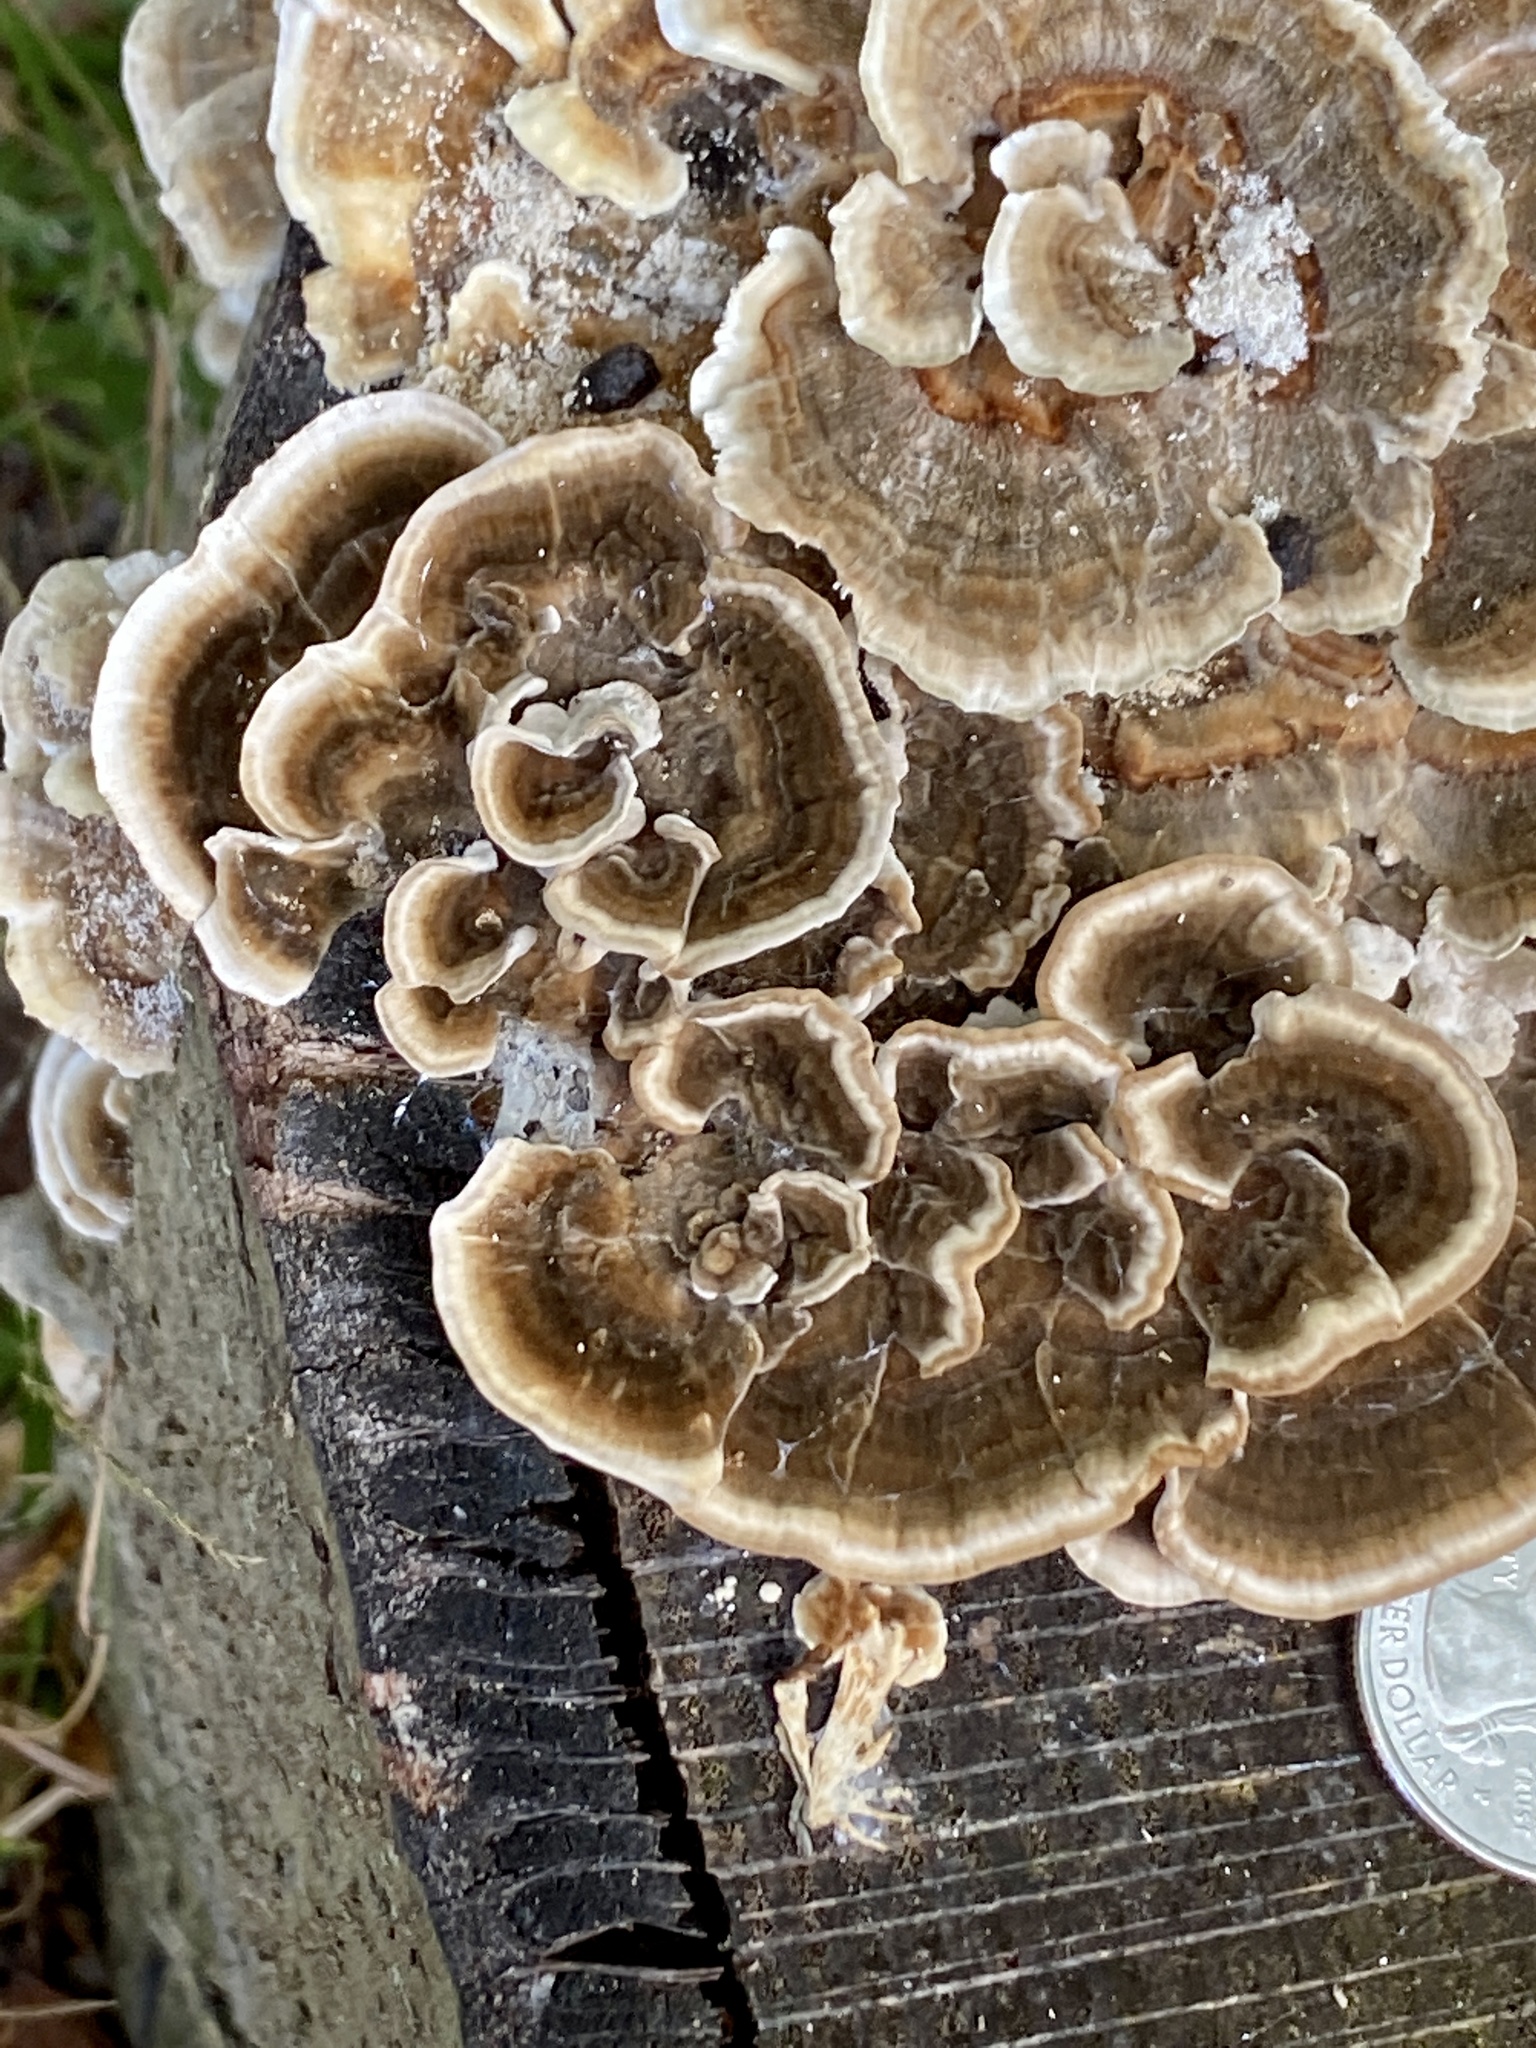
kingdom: Fungi
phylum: Basidiomycota
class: Agaricomycetes
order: Polyporales
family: Polyporaceae
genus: Trametes
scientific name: Trametes versicolor
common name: Turkeytail
